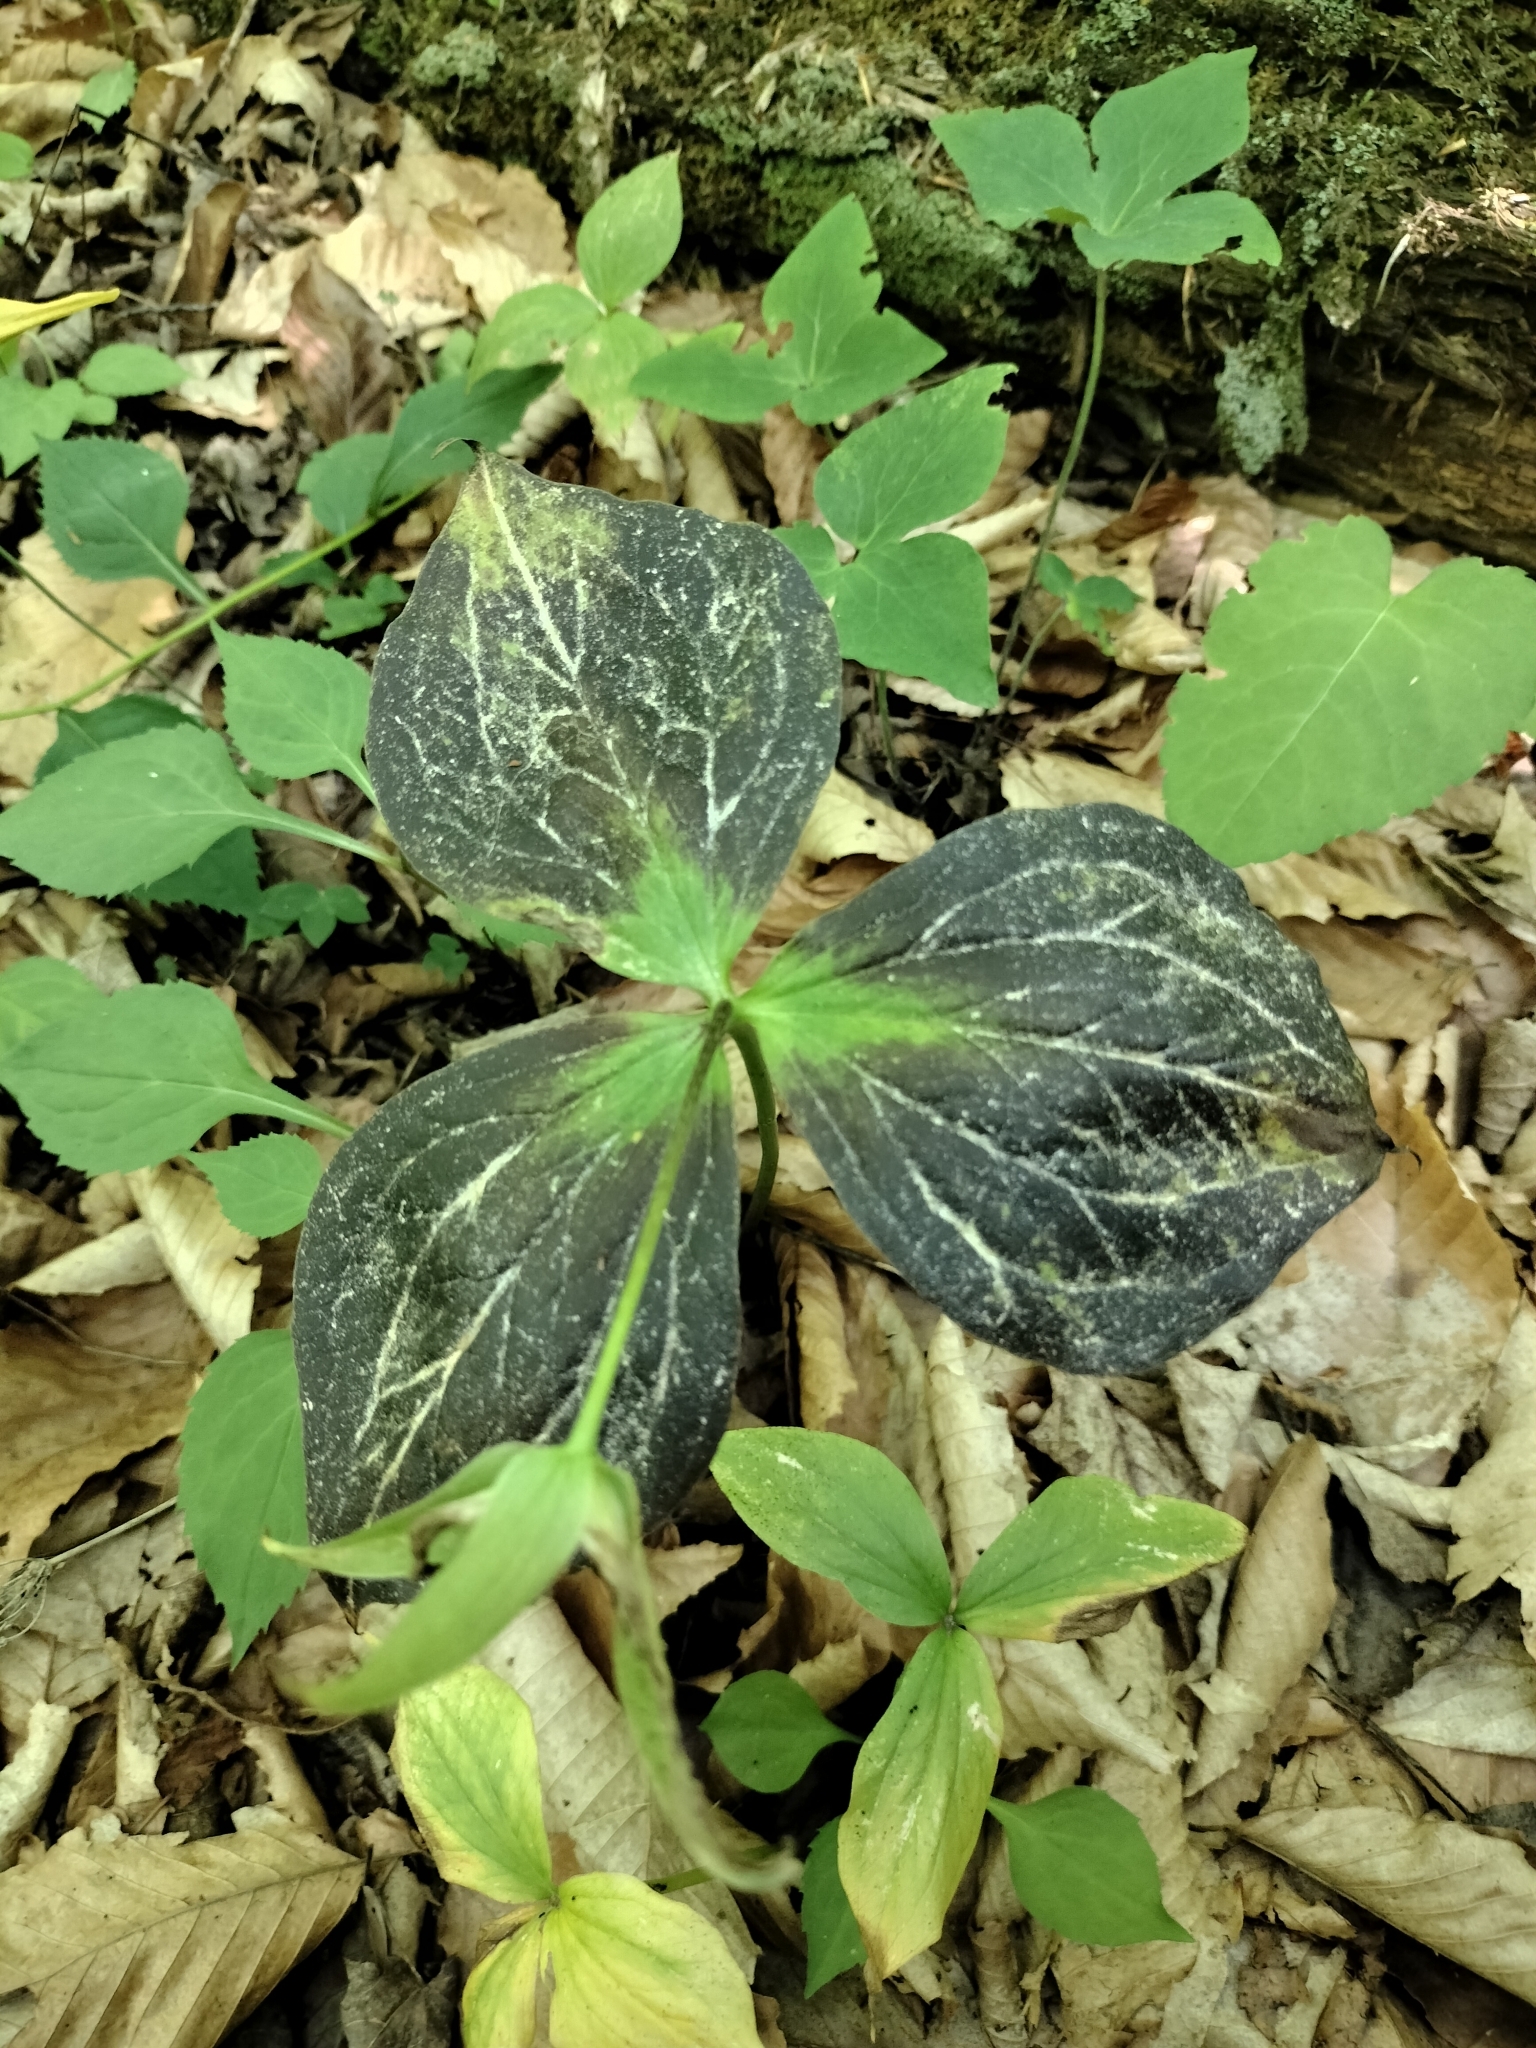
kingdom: Plantae
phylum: Tracheophyta
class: Liliopsida
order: Liliales
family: Melanthiaceae
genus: Trillium
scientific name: Trillium grandiflorum
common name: Great white trillium
